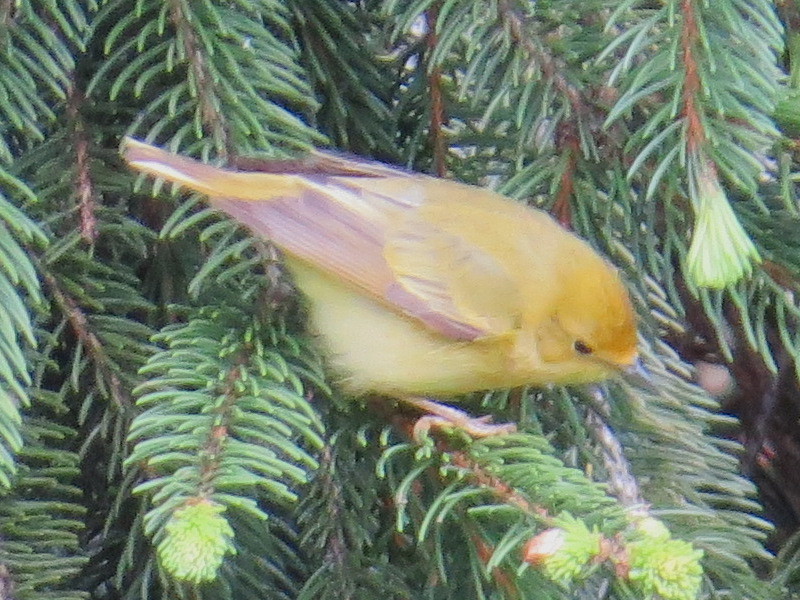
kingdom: Animalia
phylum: Chordata
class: Aves
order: Passeriformes
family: Parulidae
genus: Setophaga
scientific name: Setophaga petechia
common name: Yellow warbler
